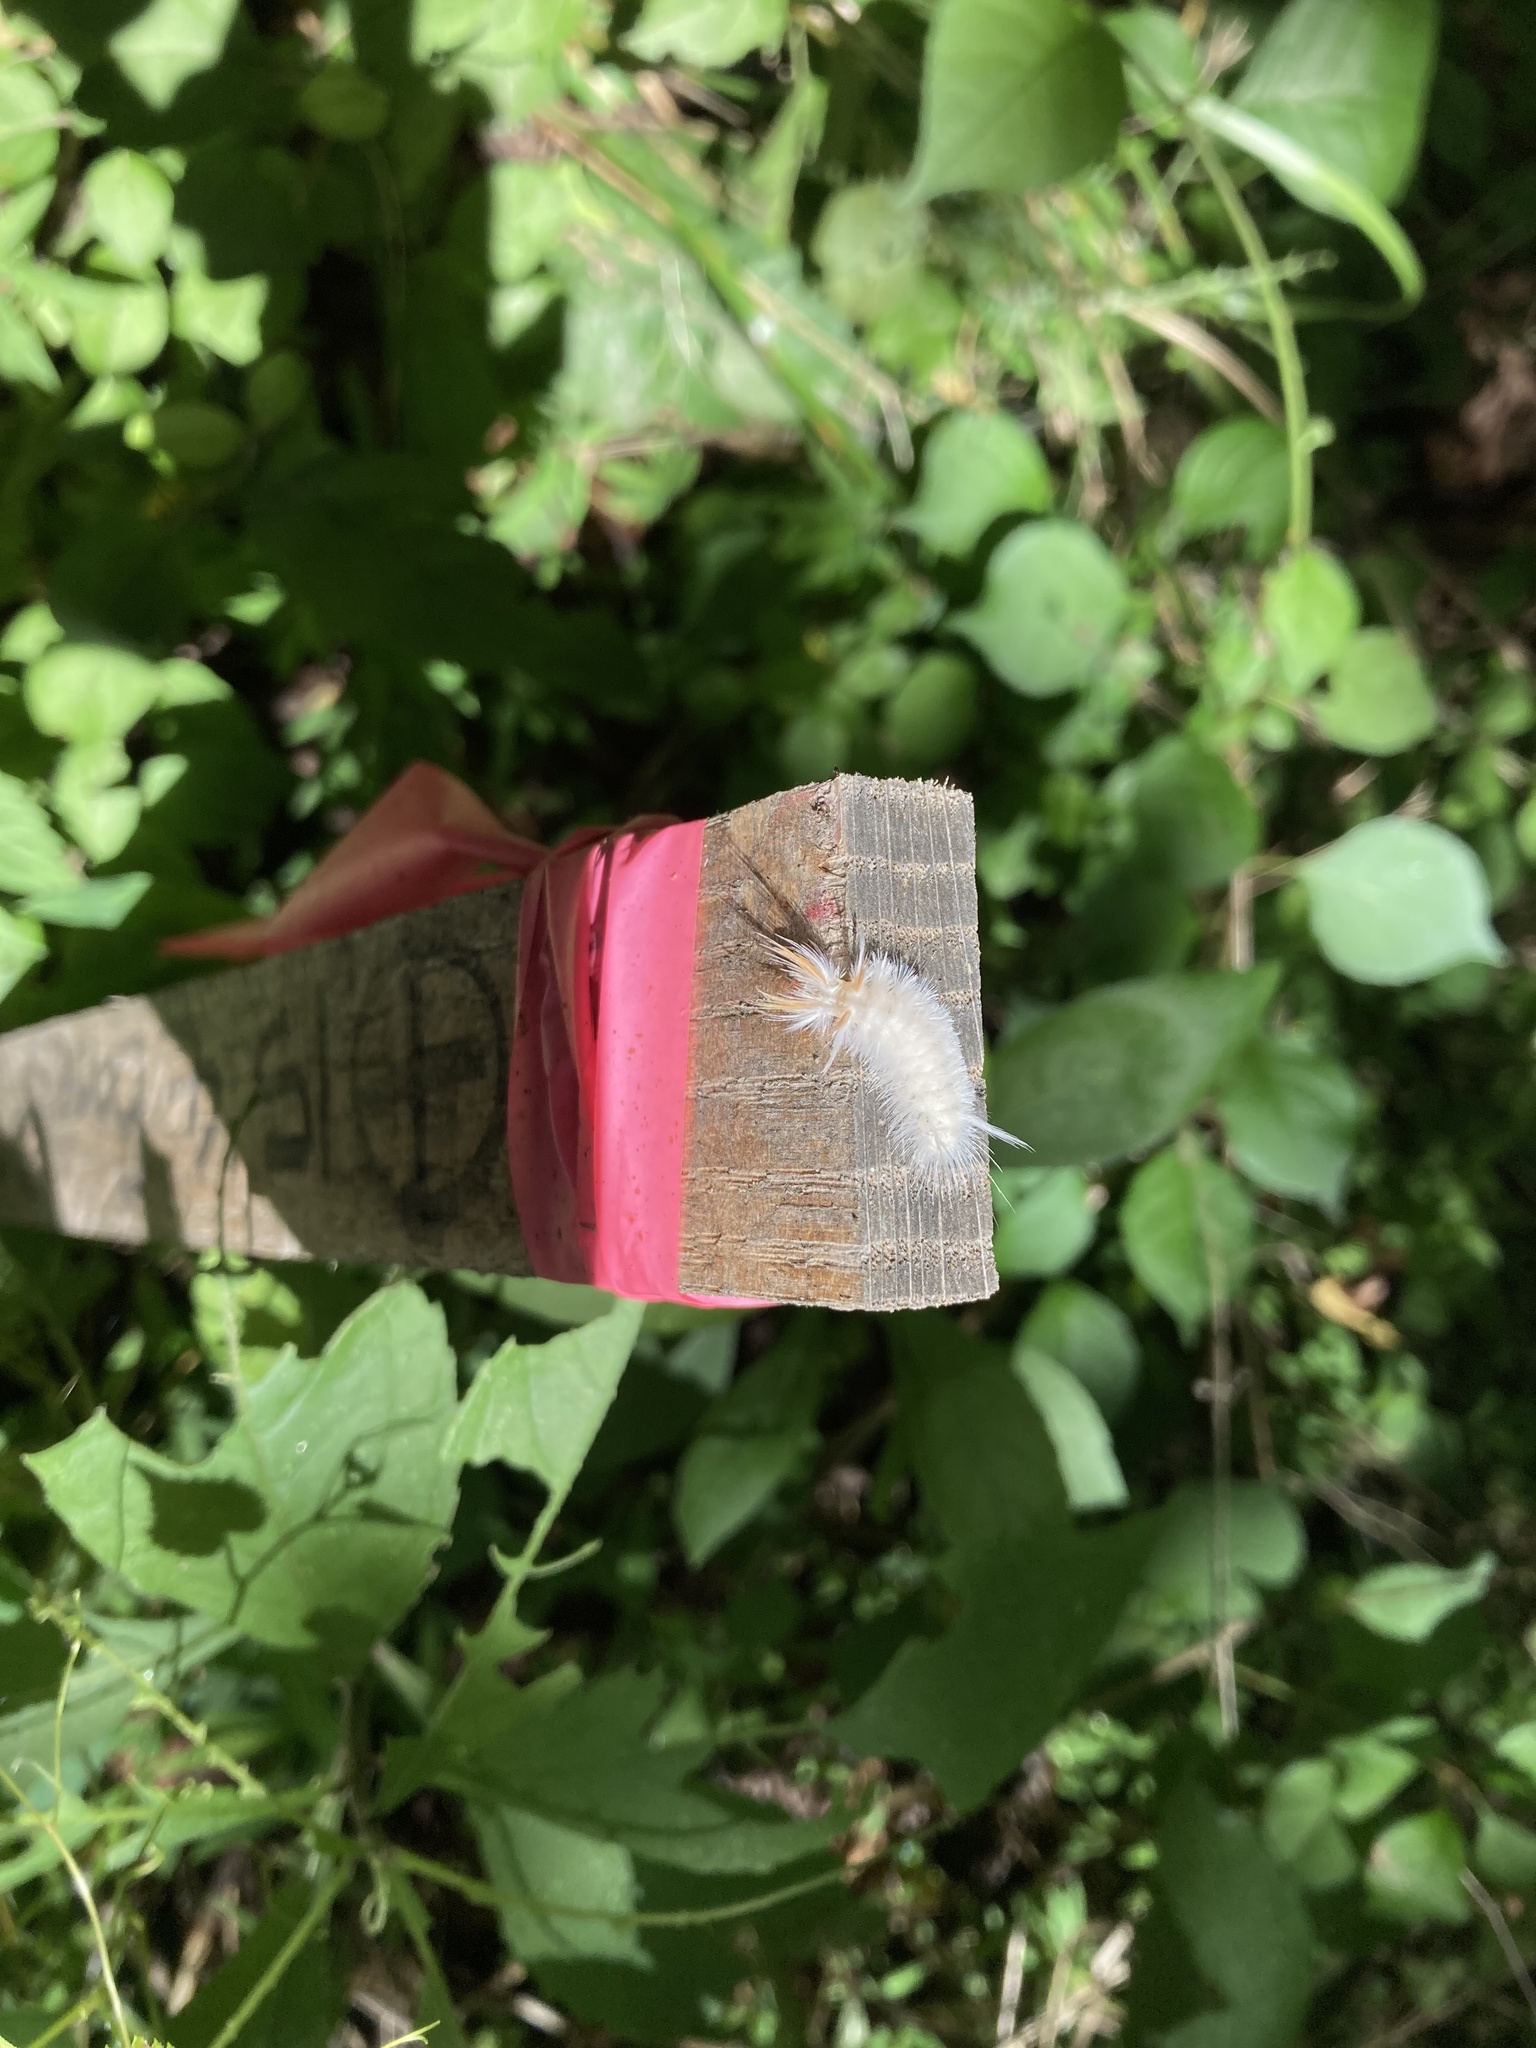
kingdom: Animalia
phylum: Arthropoda
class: Insecta
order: Lepidoptera
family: Erebidae
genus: Halysidota
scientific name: Halysidota harrisii
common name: Sycamore tussock moth
